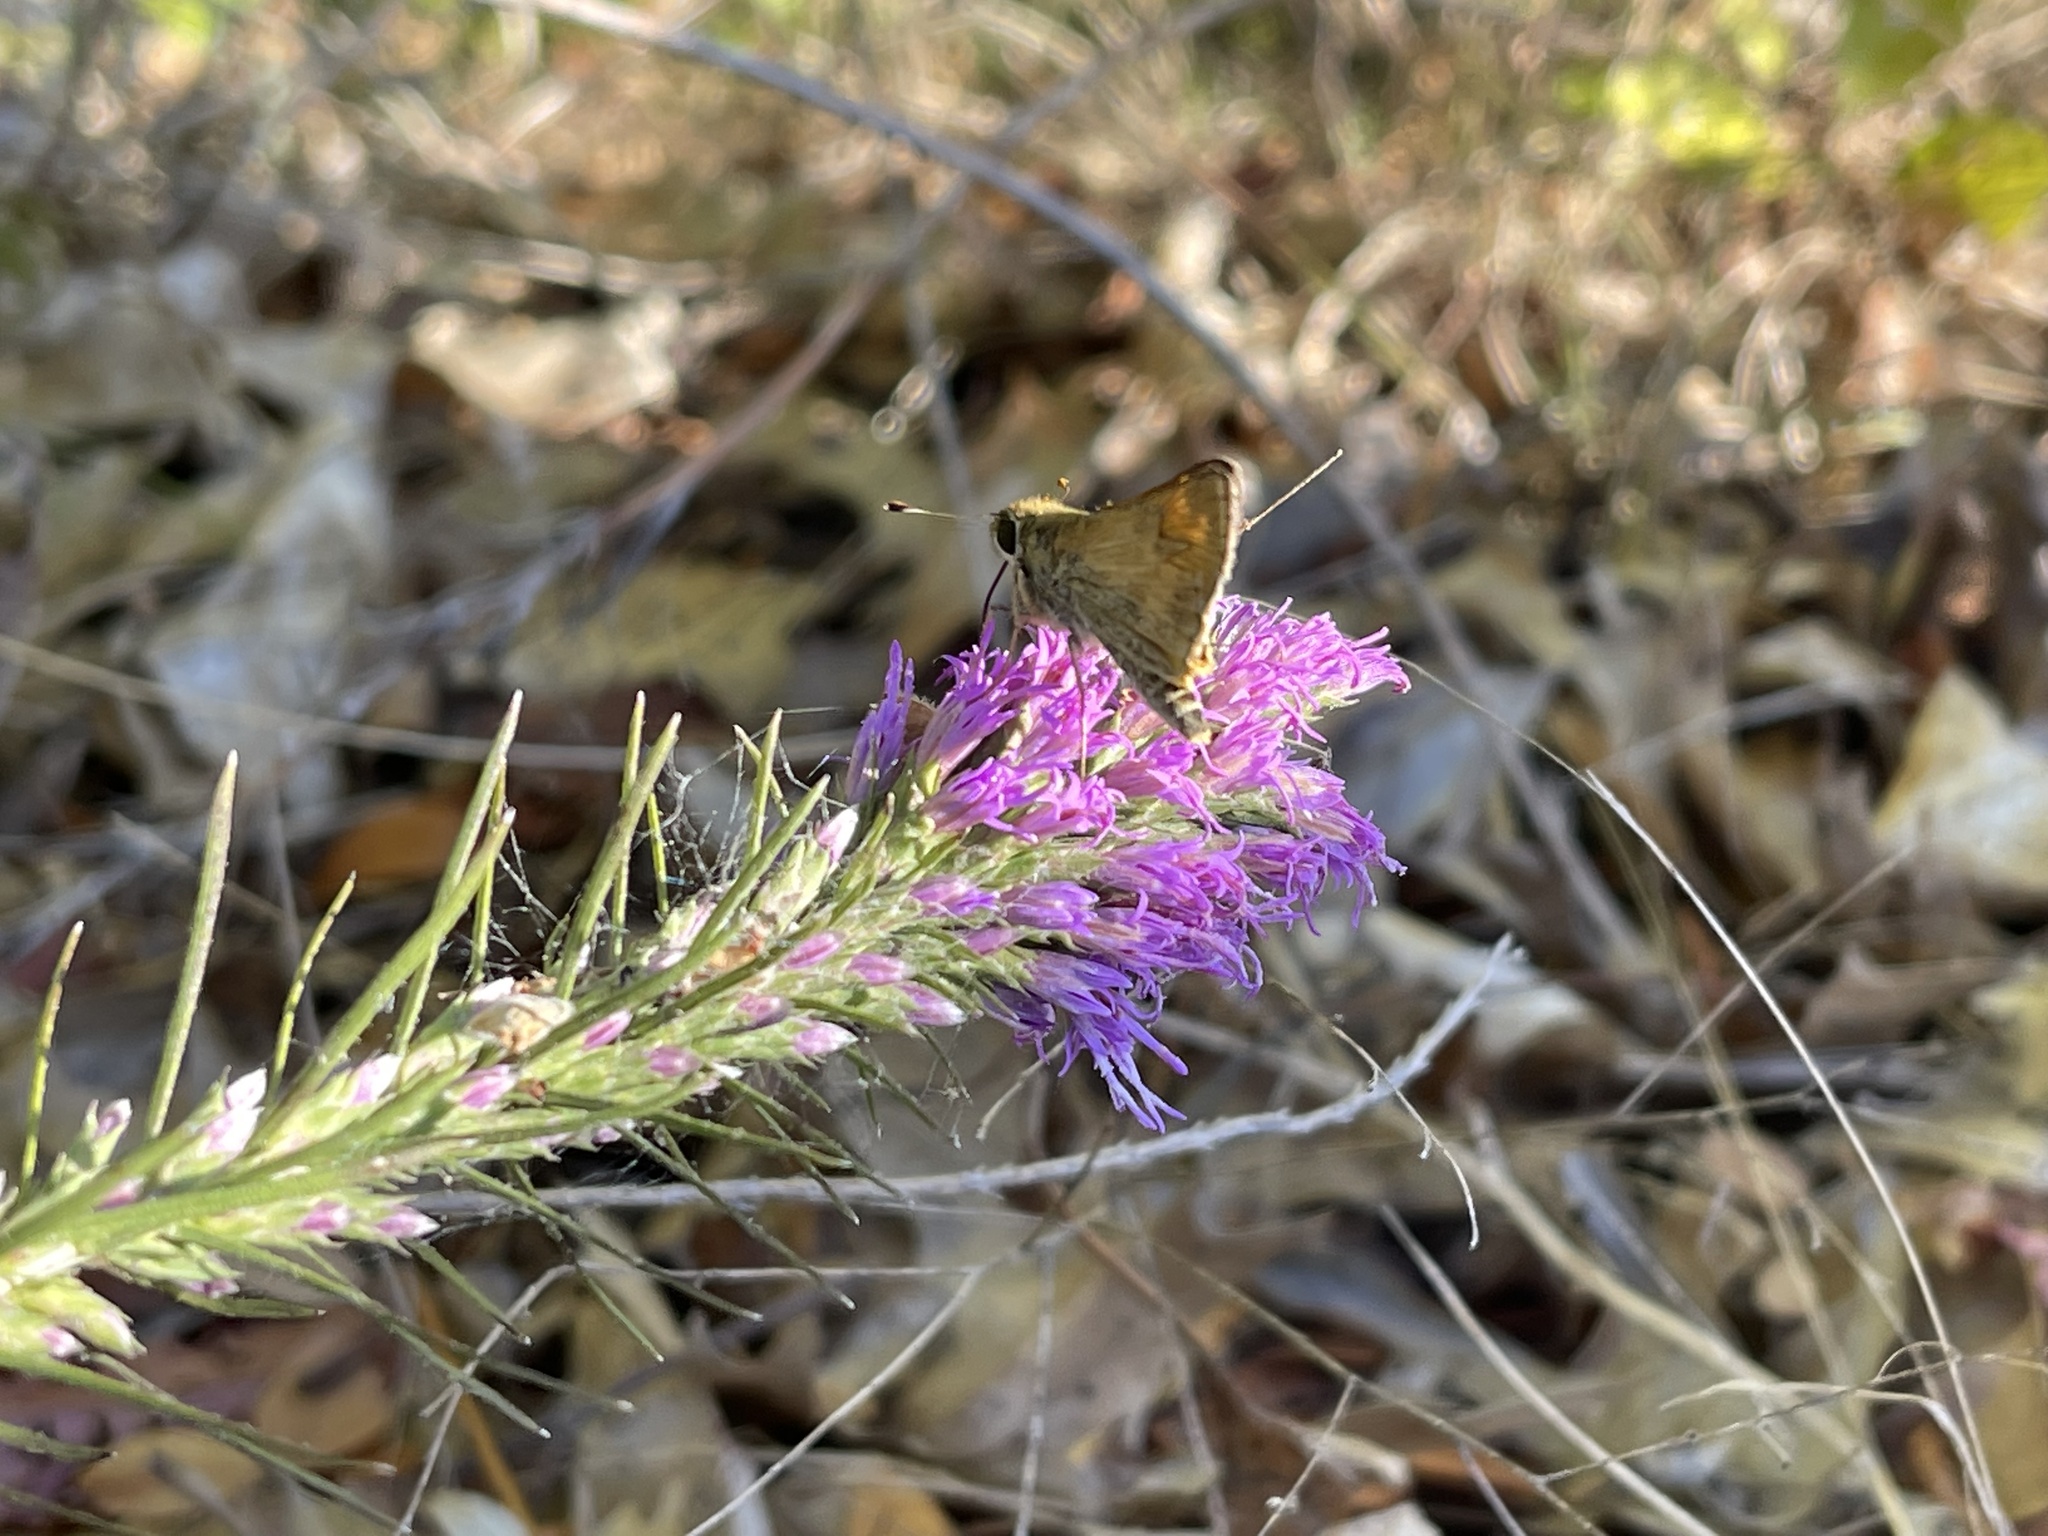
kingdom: Animalia
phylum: Arthropoda
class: Insecta
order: Lepidoptera
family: Hesperiidae
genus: Atalopedes
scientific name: Atalopedes
